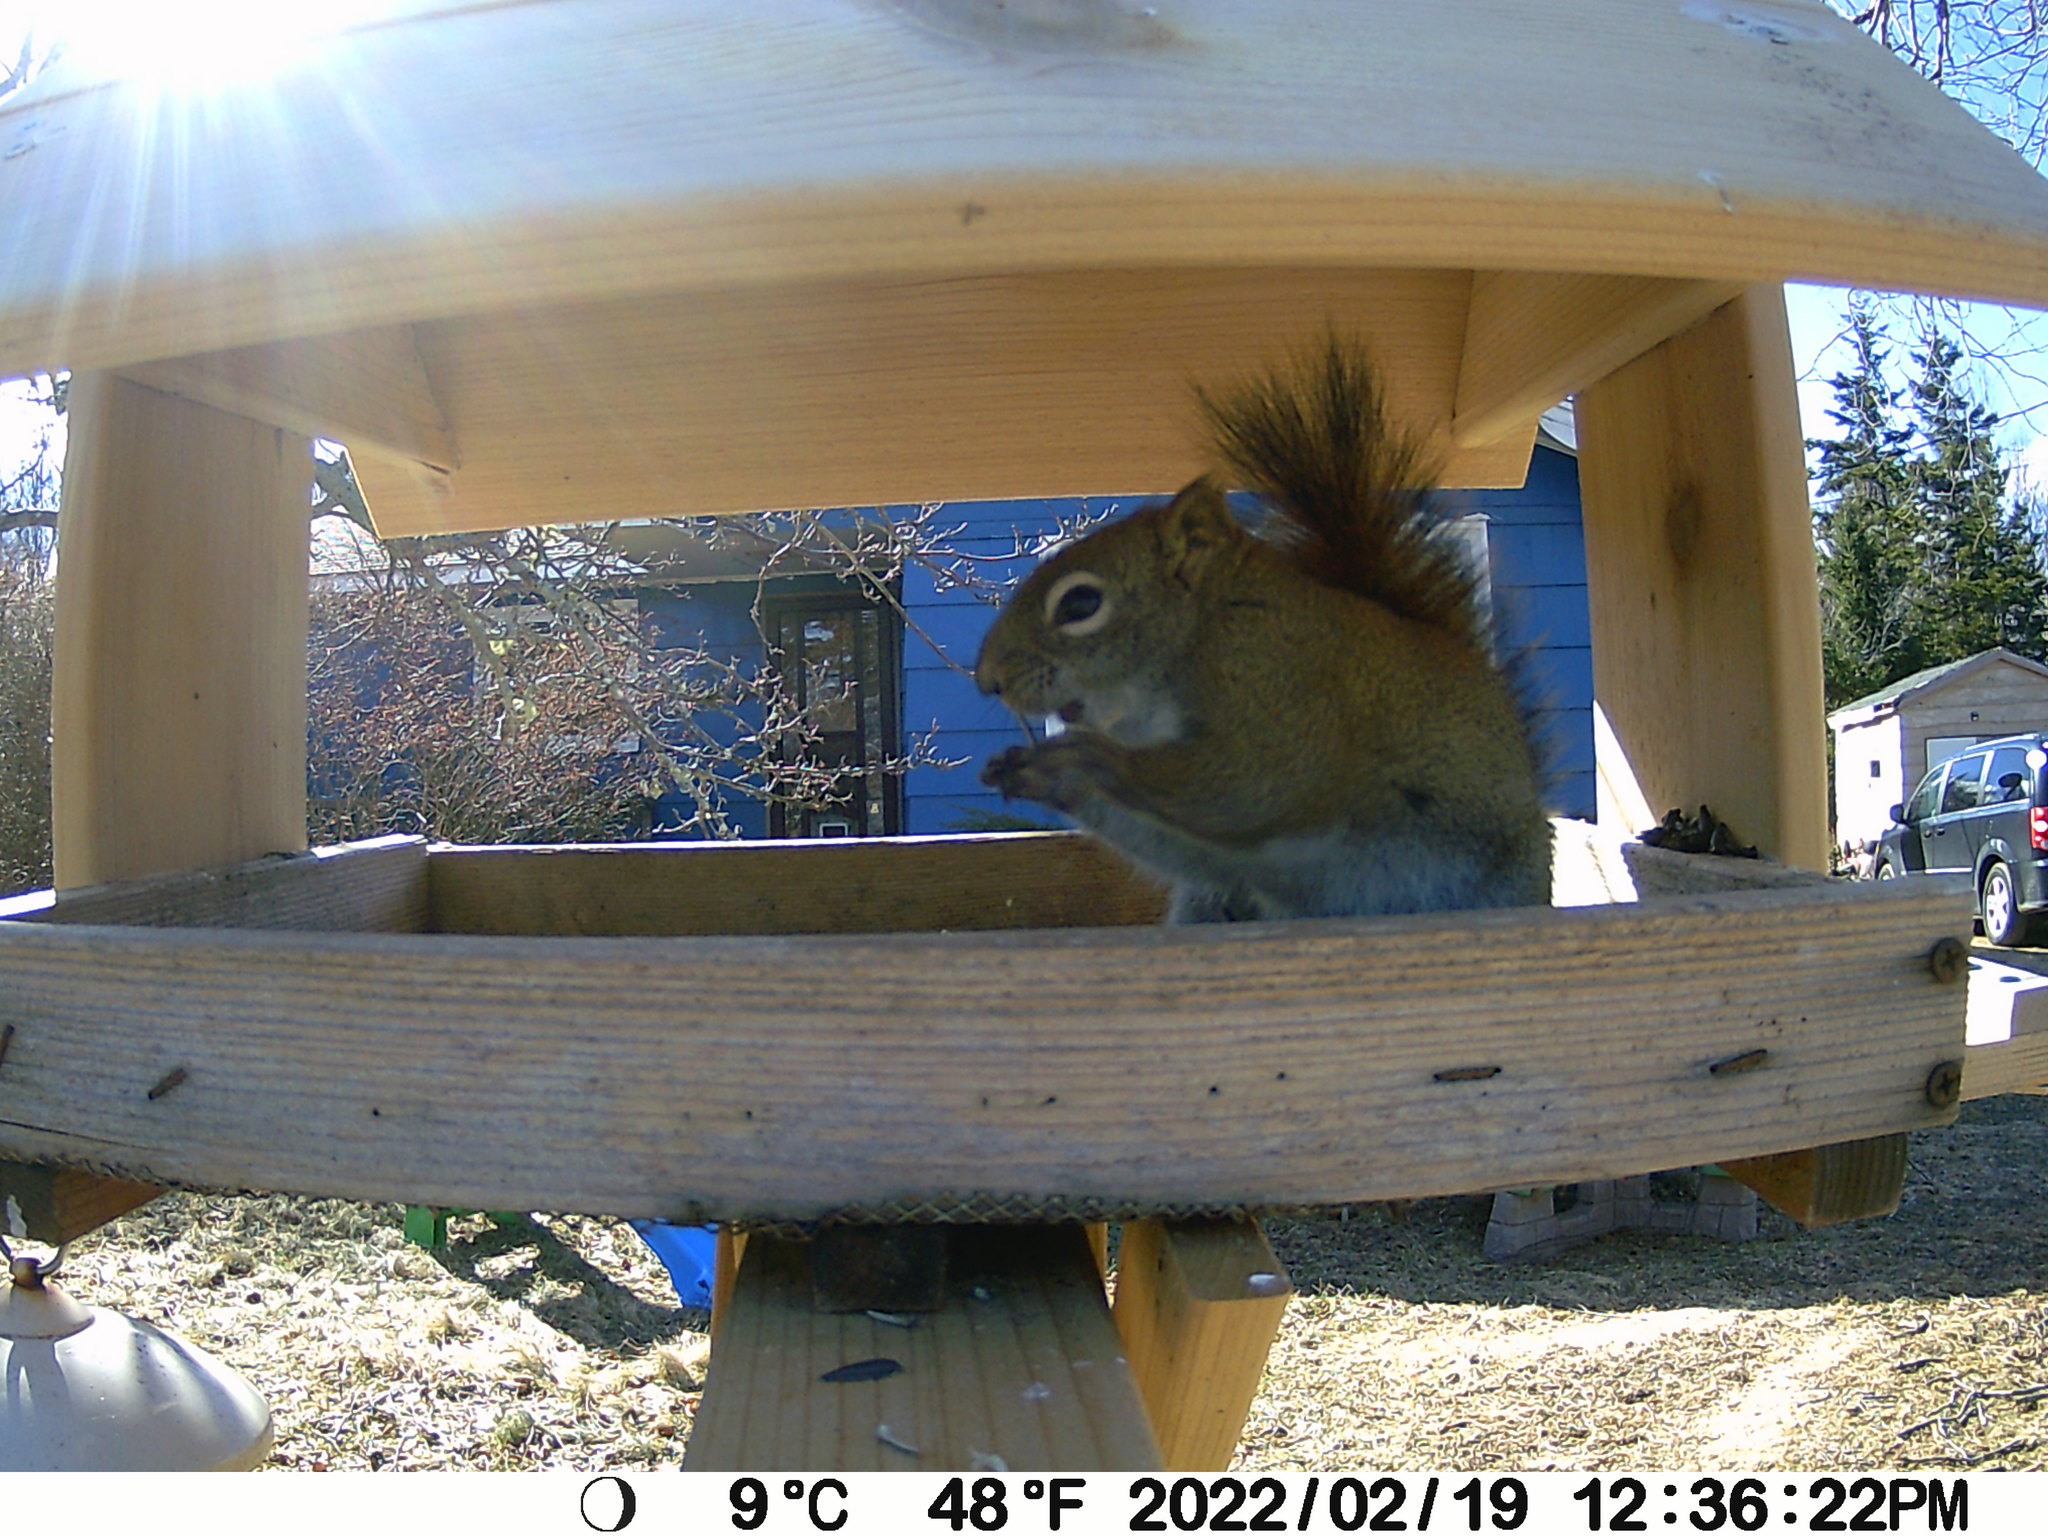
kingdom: Animalia
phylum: Chordata
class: Mammalia
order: Rodentia
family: Sciuridae
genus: Tamiasciurus
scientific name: Tamiasciurus hudsonicus
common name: Red squirrel
